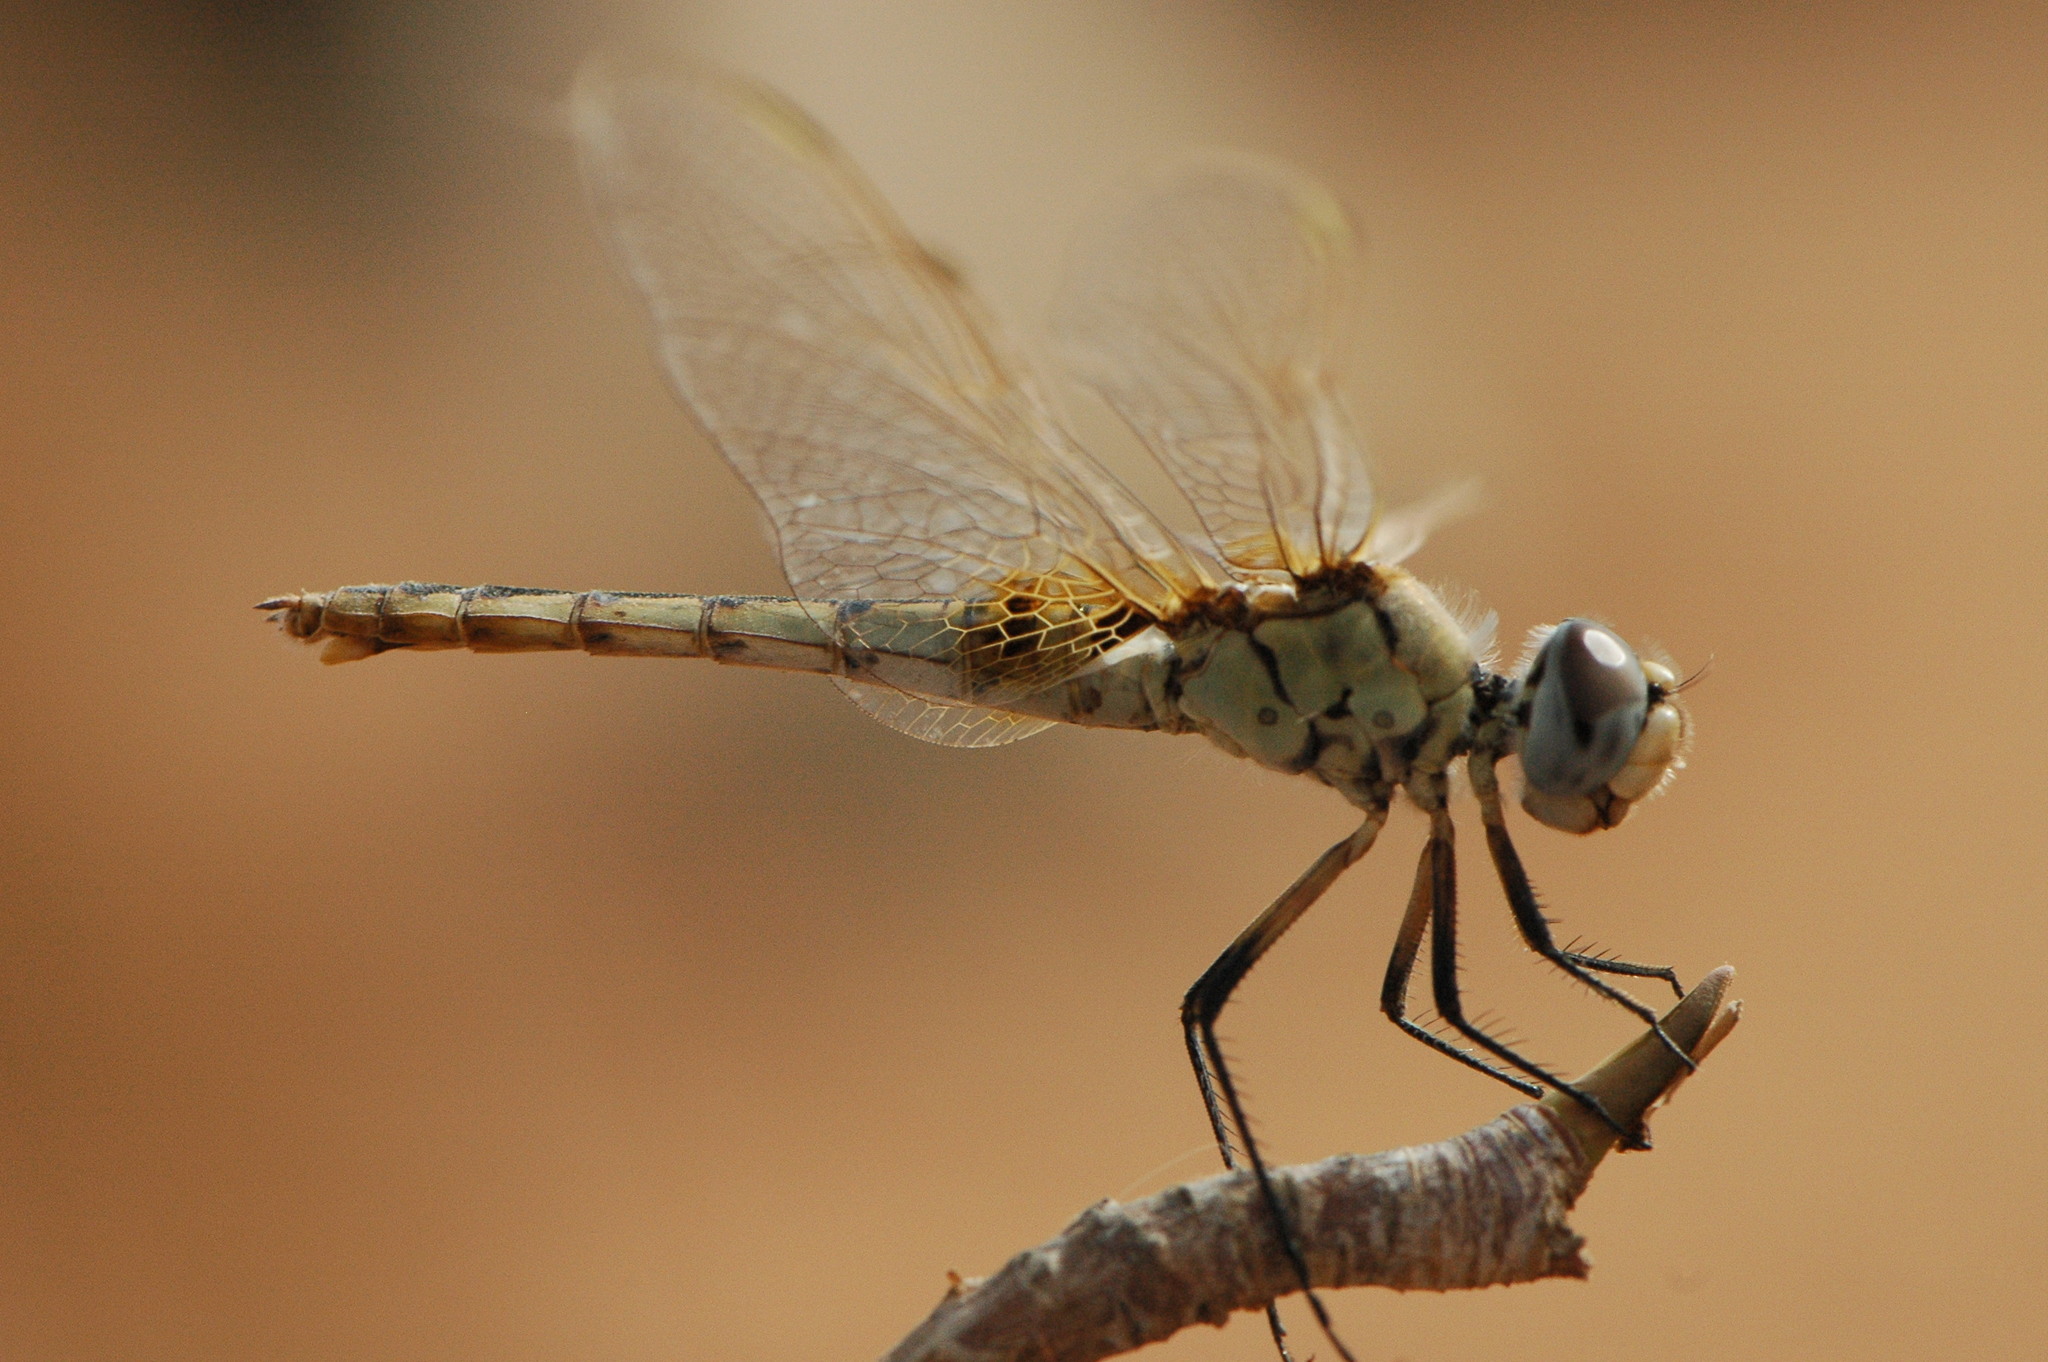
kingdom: Animalia
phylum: Arthropoda
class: Insecta
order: Odonata
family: Libellulidae
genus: Urothemis
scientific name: Urothemis edwardsii
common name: Blue basker
